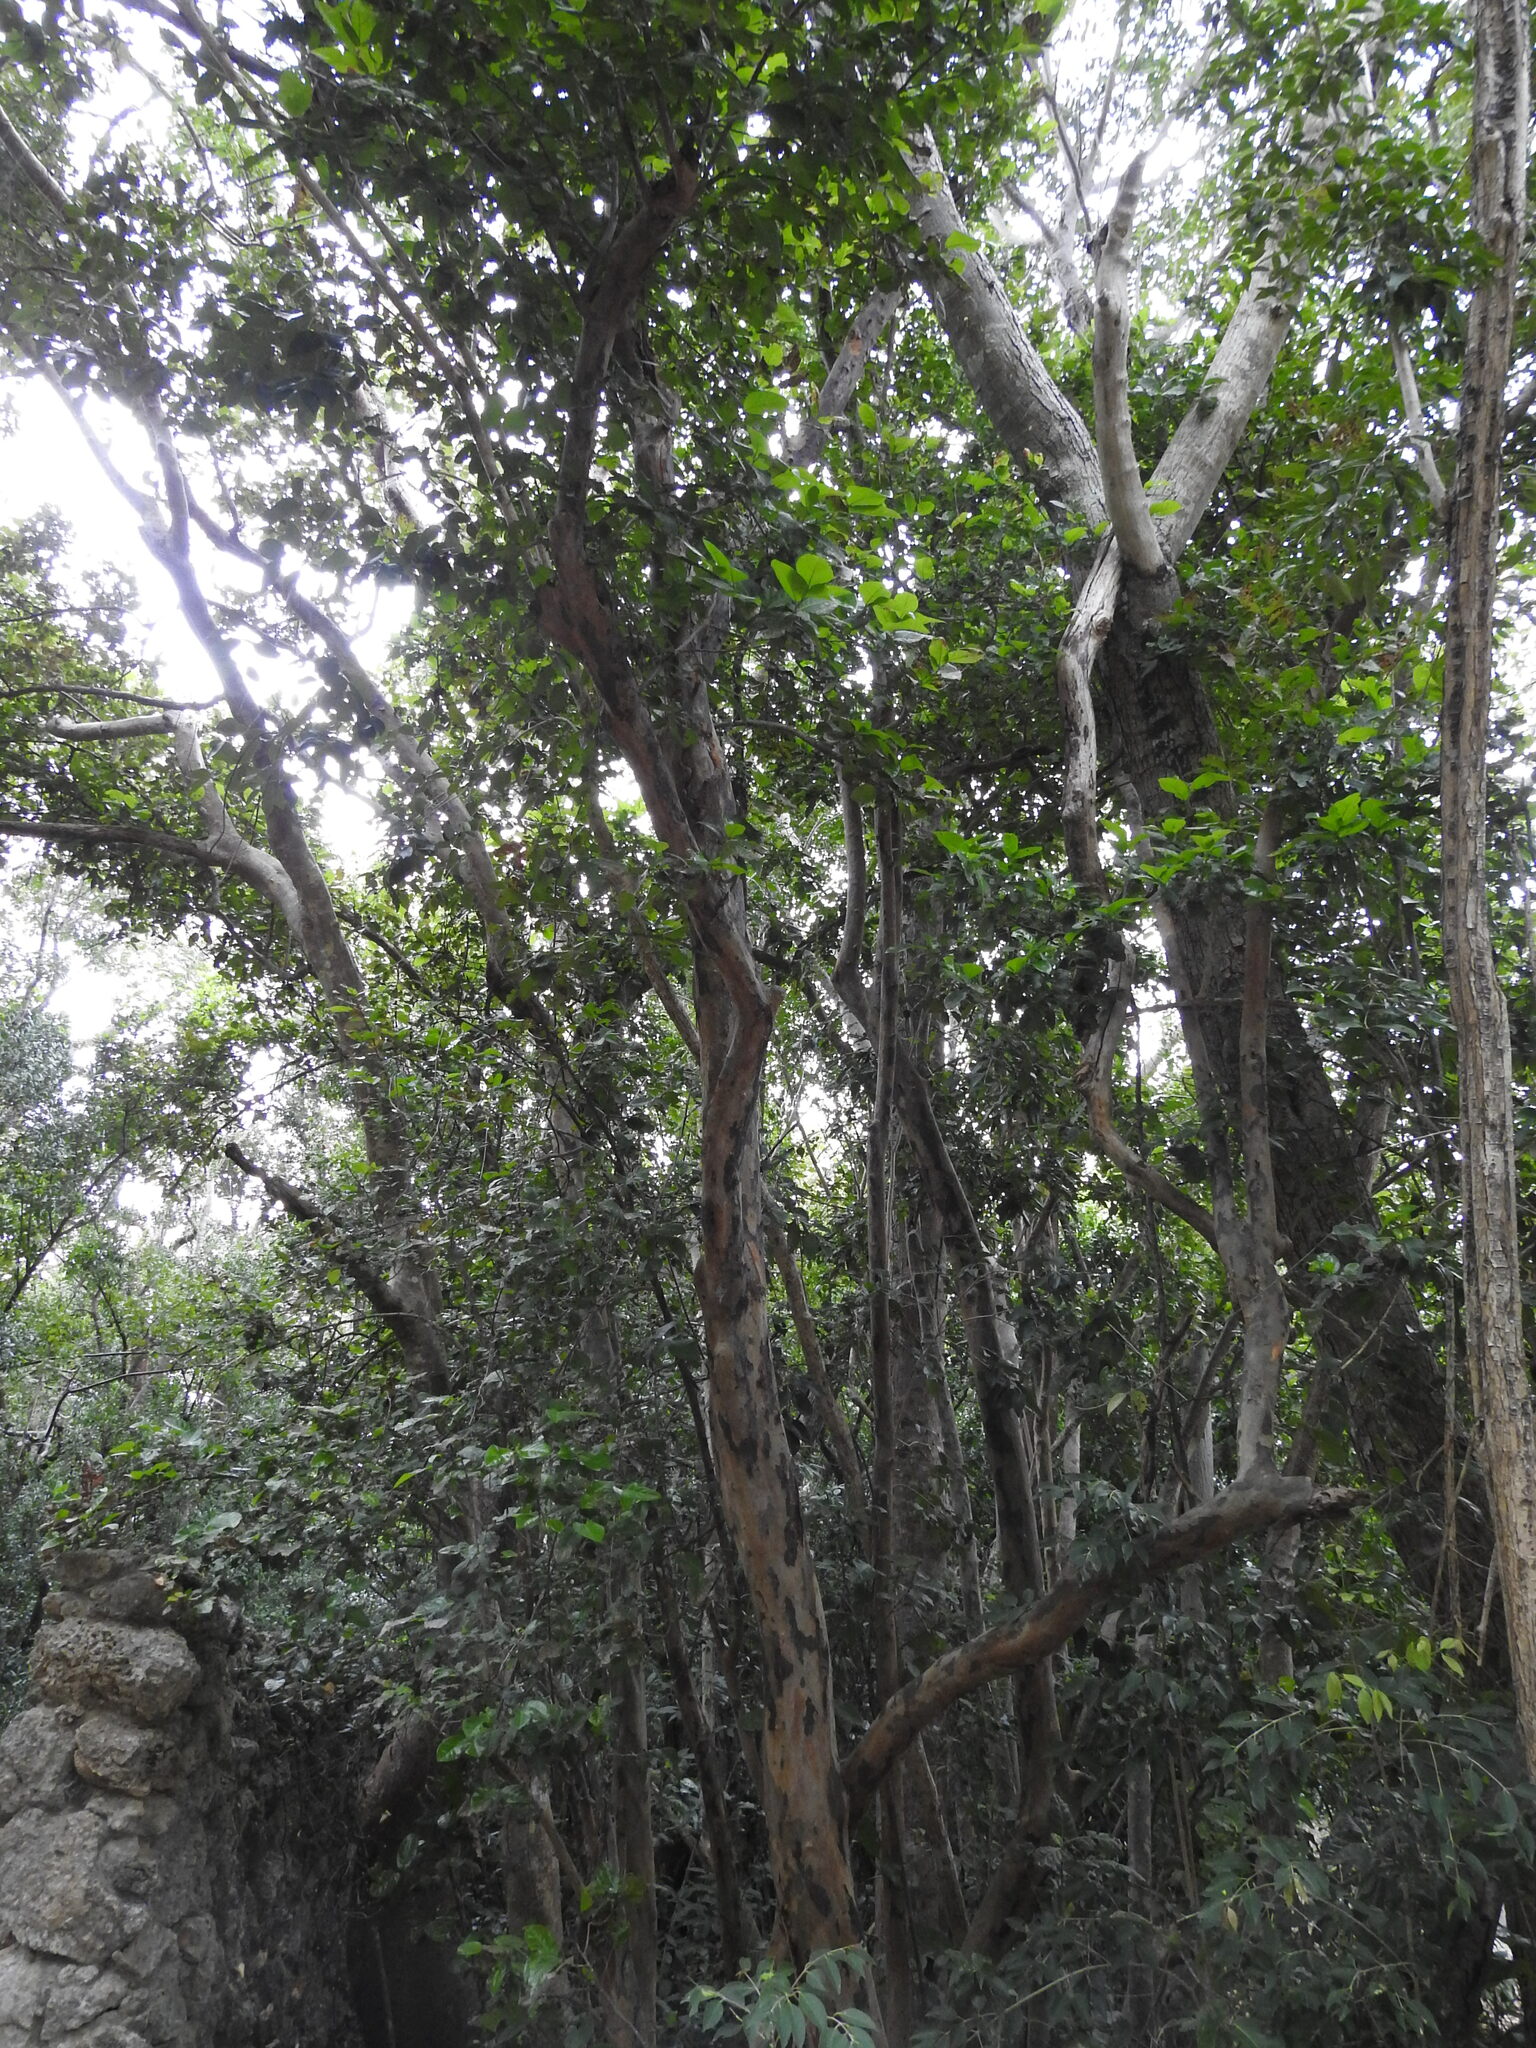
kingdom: Plantae
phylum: Tracheophyta
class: Magnoliopsida
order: Caryophyllales
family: Polygonaceae
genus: Coccoloba
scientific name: Coccoloba diversifolia
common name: Pigeon-plum
